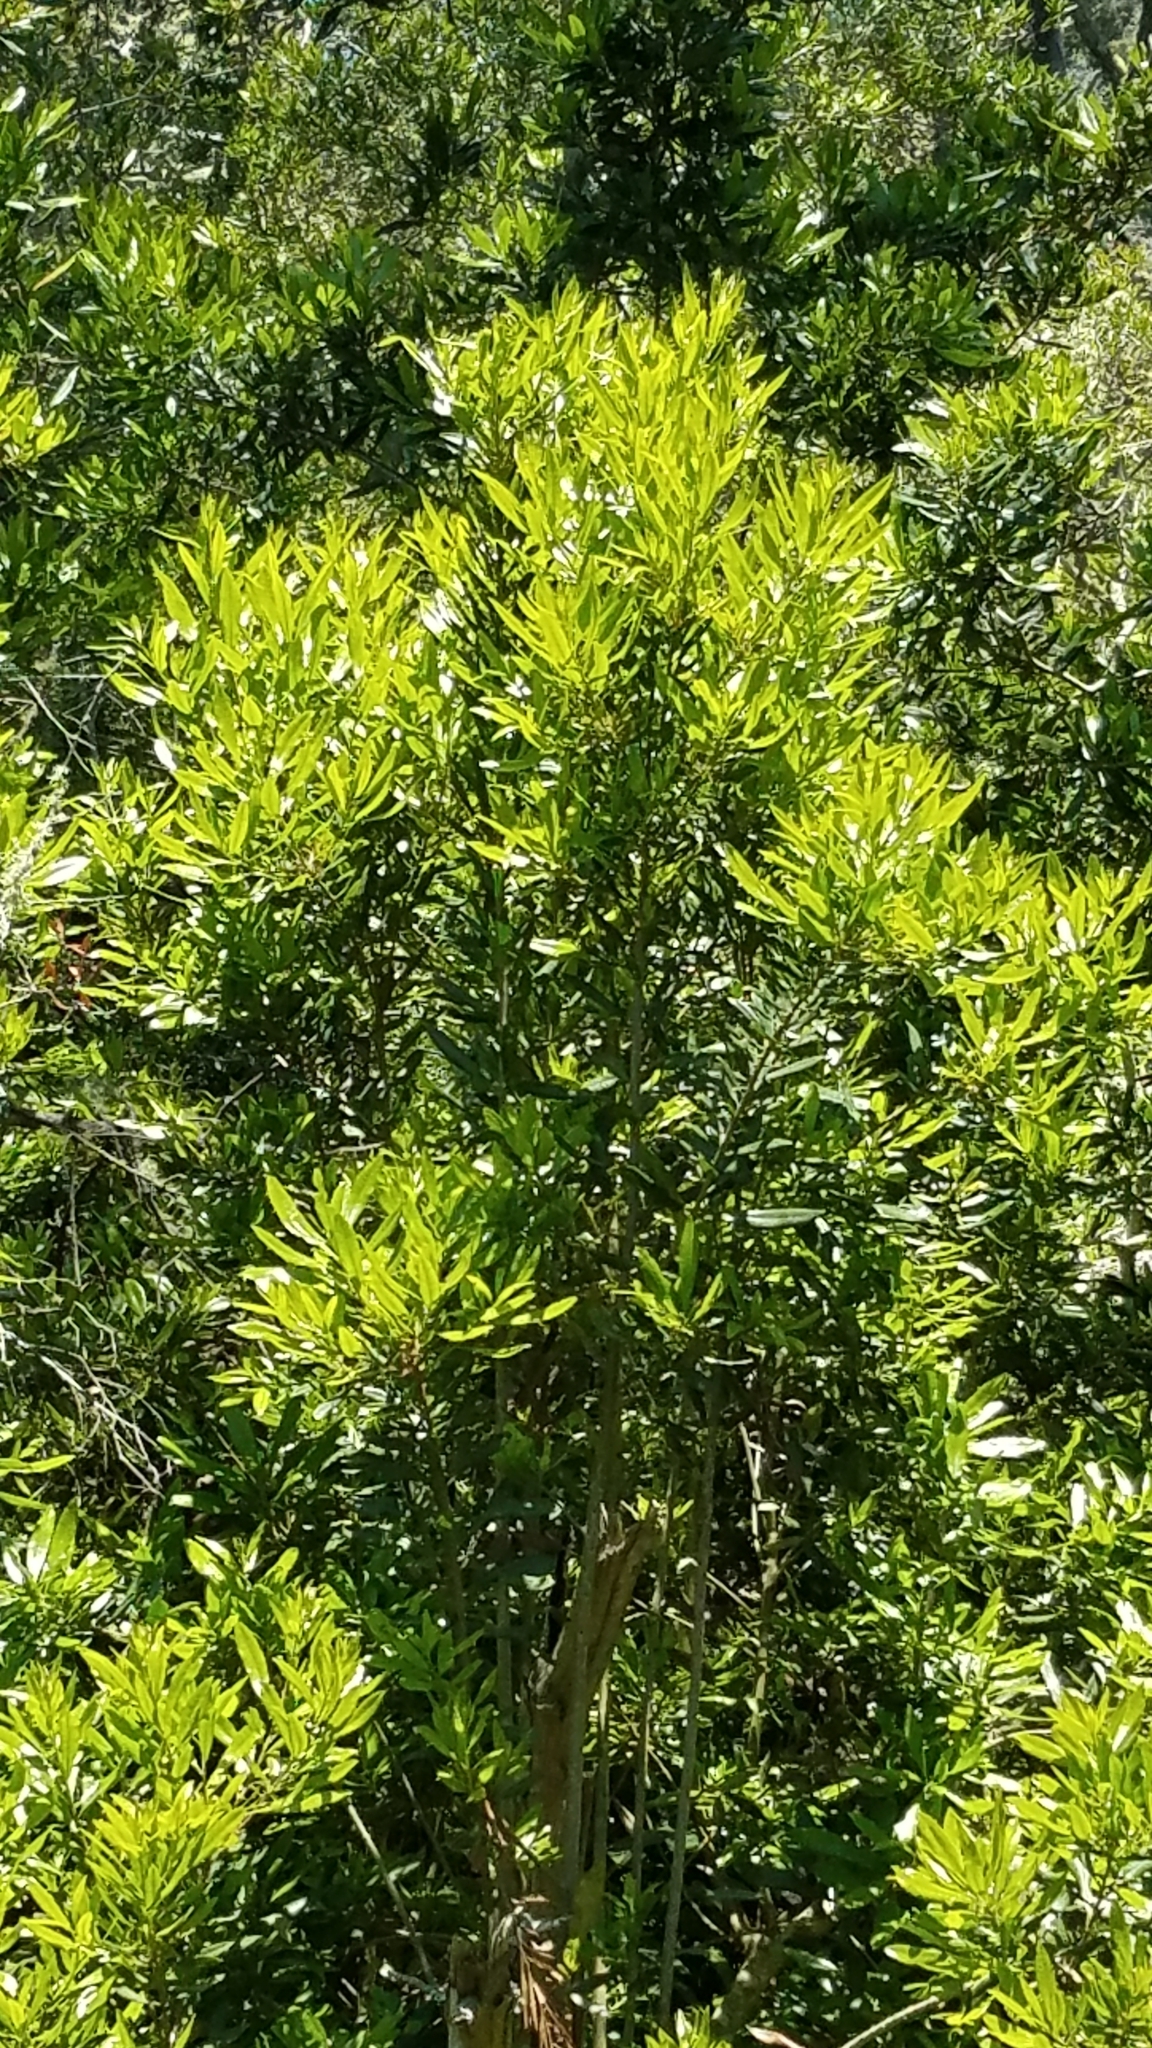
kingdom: Plantae
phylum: Tracheophyta
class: Magnoliopsida
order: Fagales
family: Myricaceae
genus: Morella
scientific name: Morella californica
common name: California wax-myrtle
